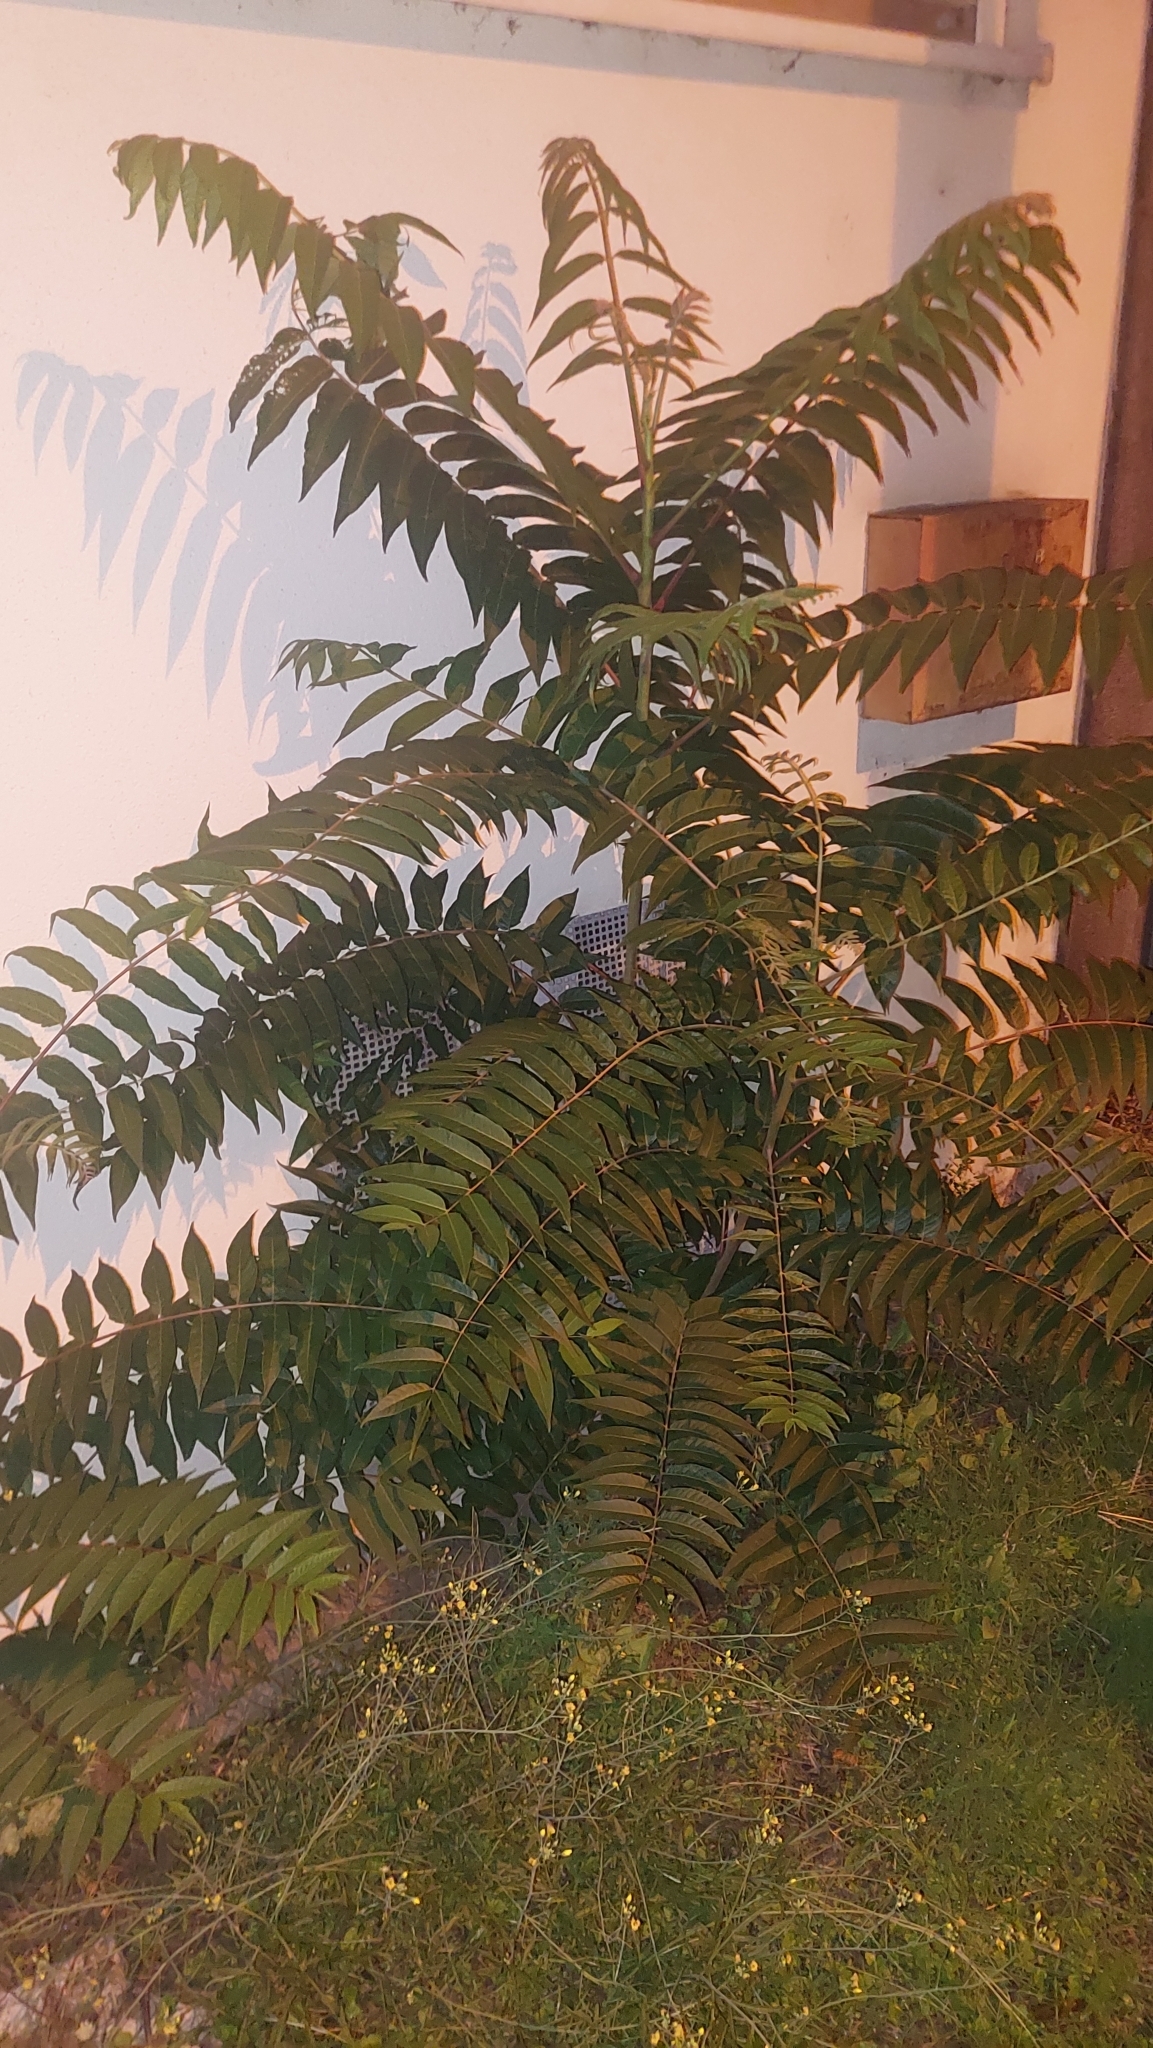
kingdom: Plantae
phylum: Tracheophyta
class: Magnoliopsida
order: Sapindales
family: Simaroubaceae
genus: Ailanthus
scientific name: Ailanthus altissima
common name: Tree-of-heaven
